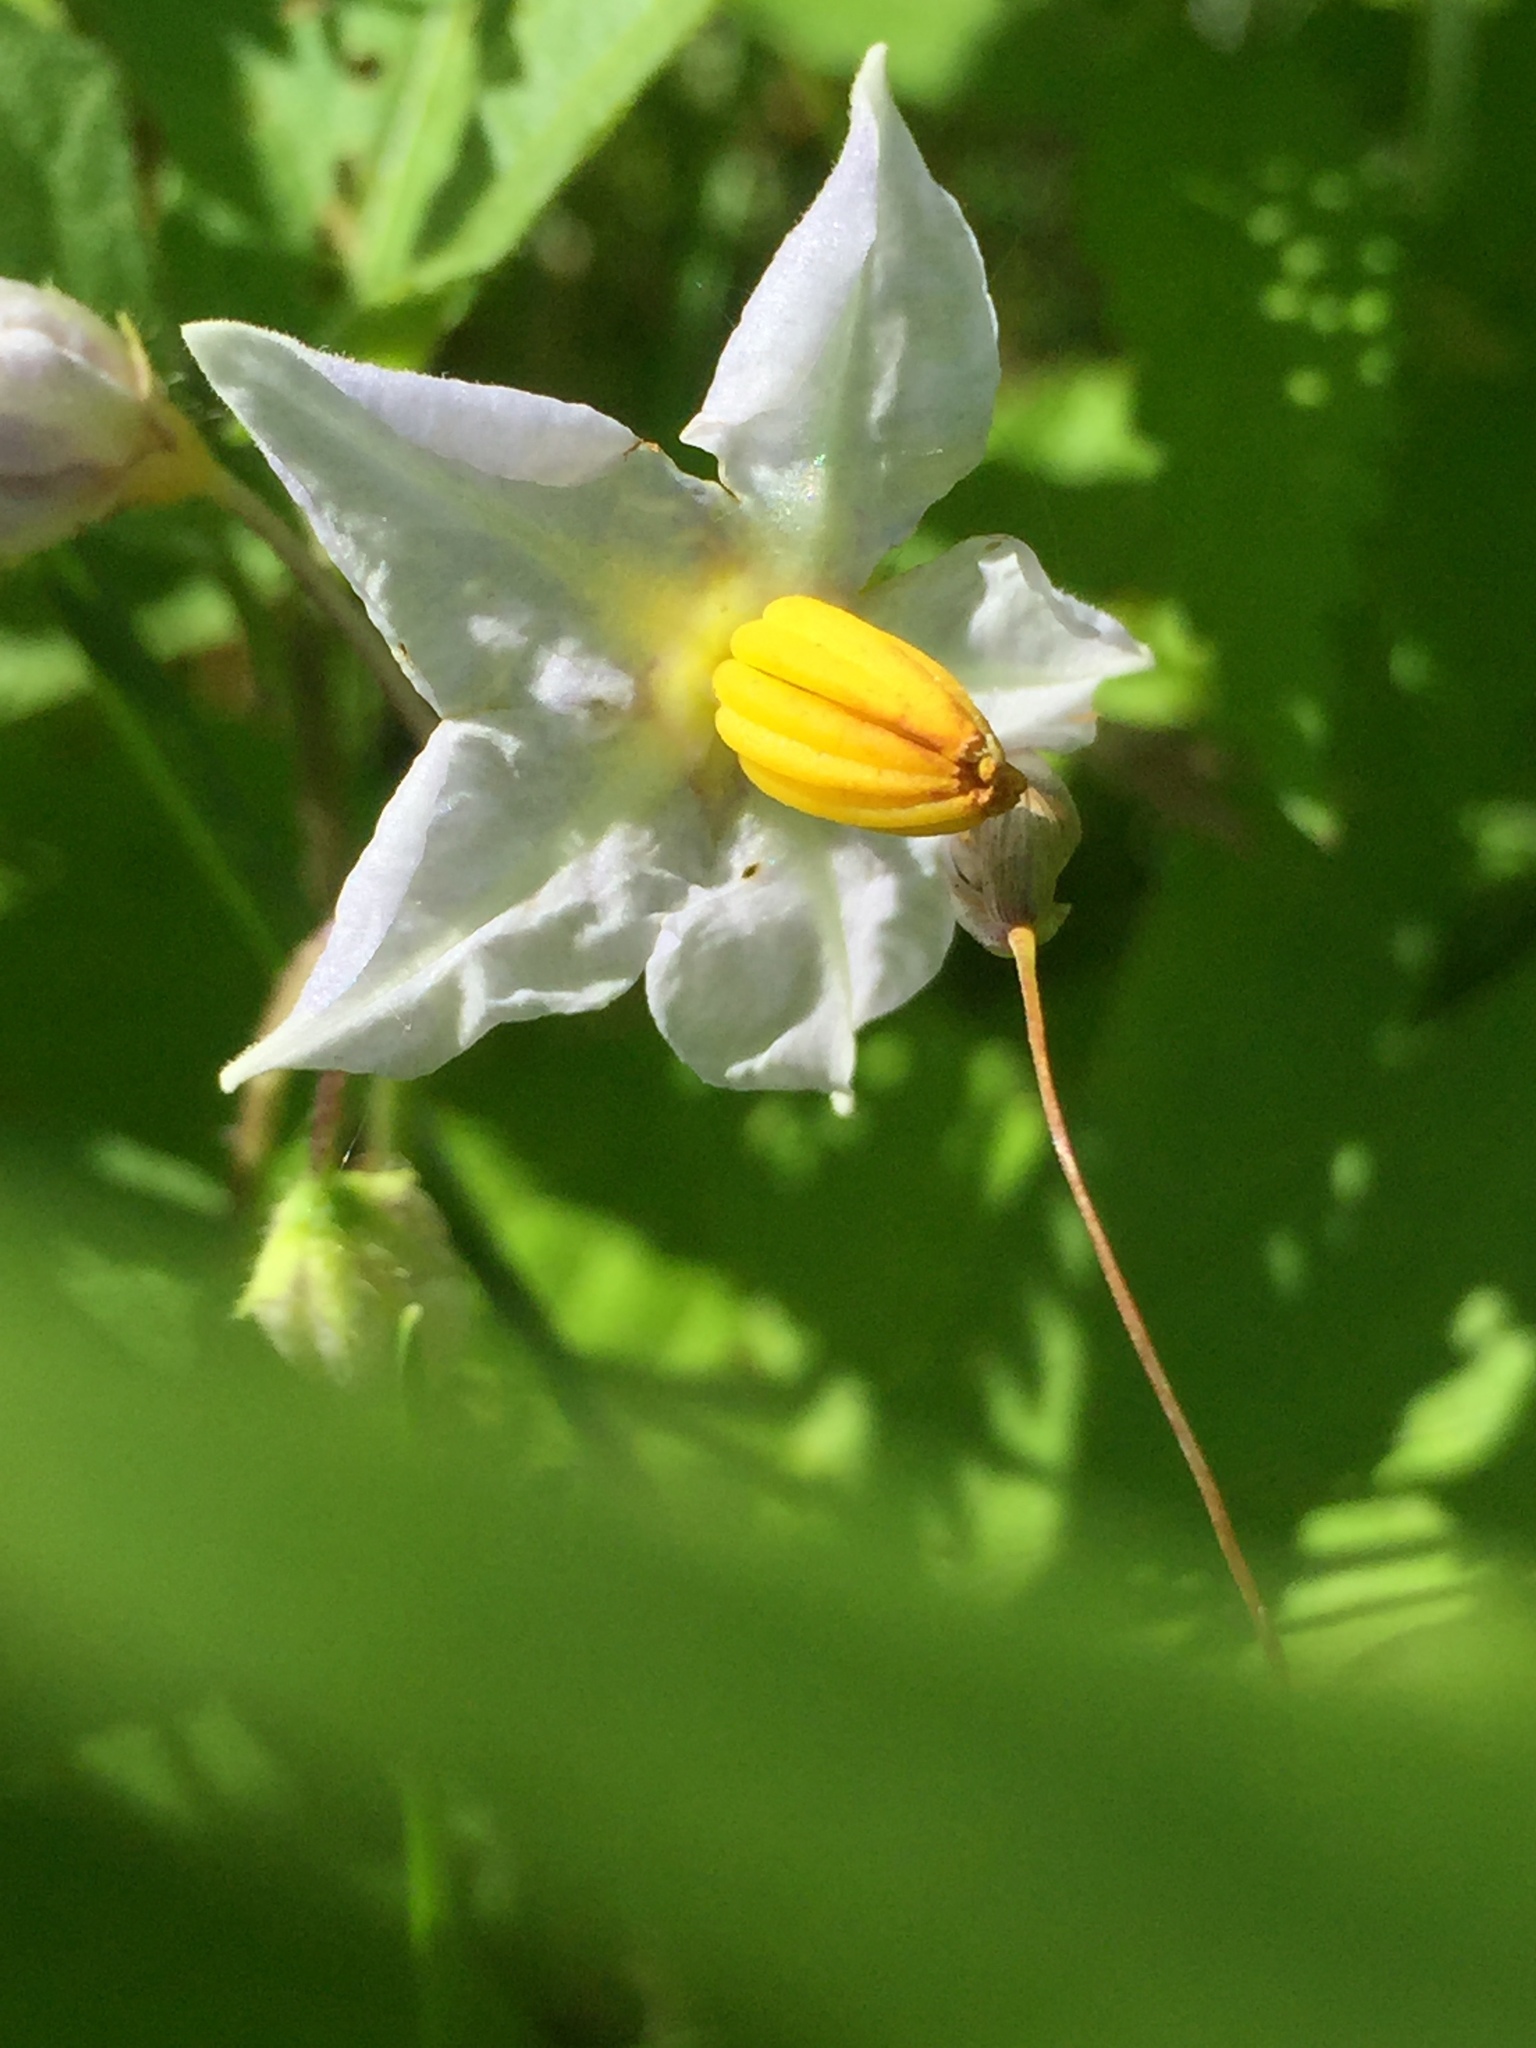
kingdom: Plantae
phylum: Tracheophyta
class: Magnoliopsida
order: Solanales
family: Solanaceae
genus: Solanum
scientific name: Solanum carolinense
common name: Horse-nettle
